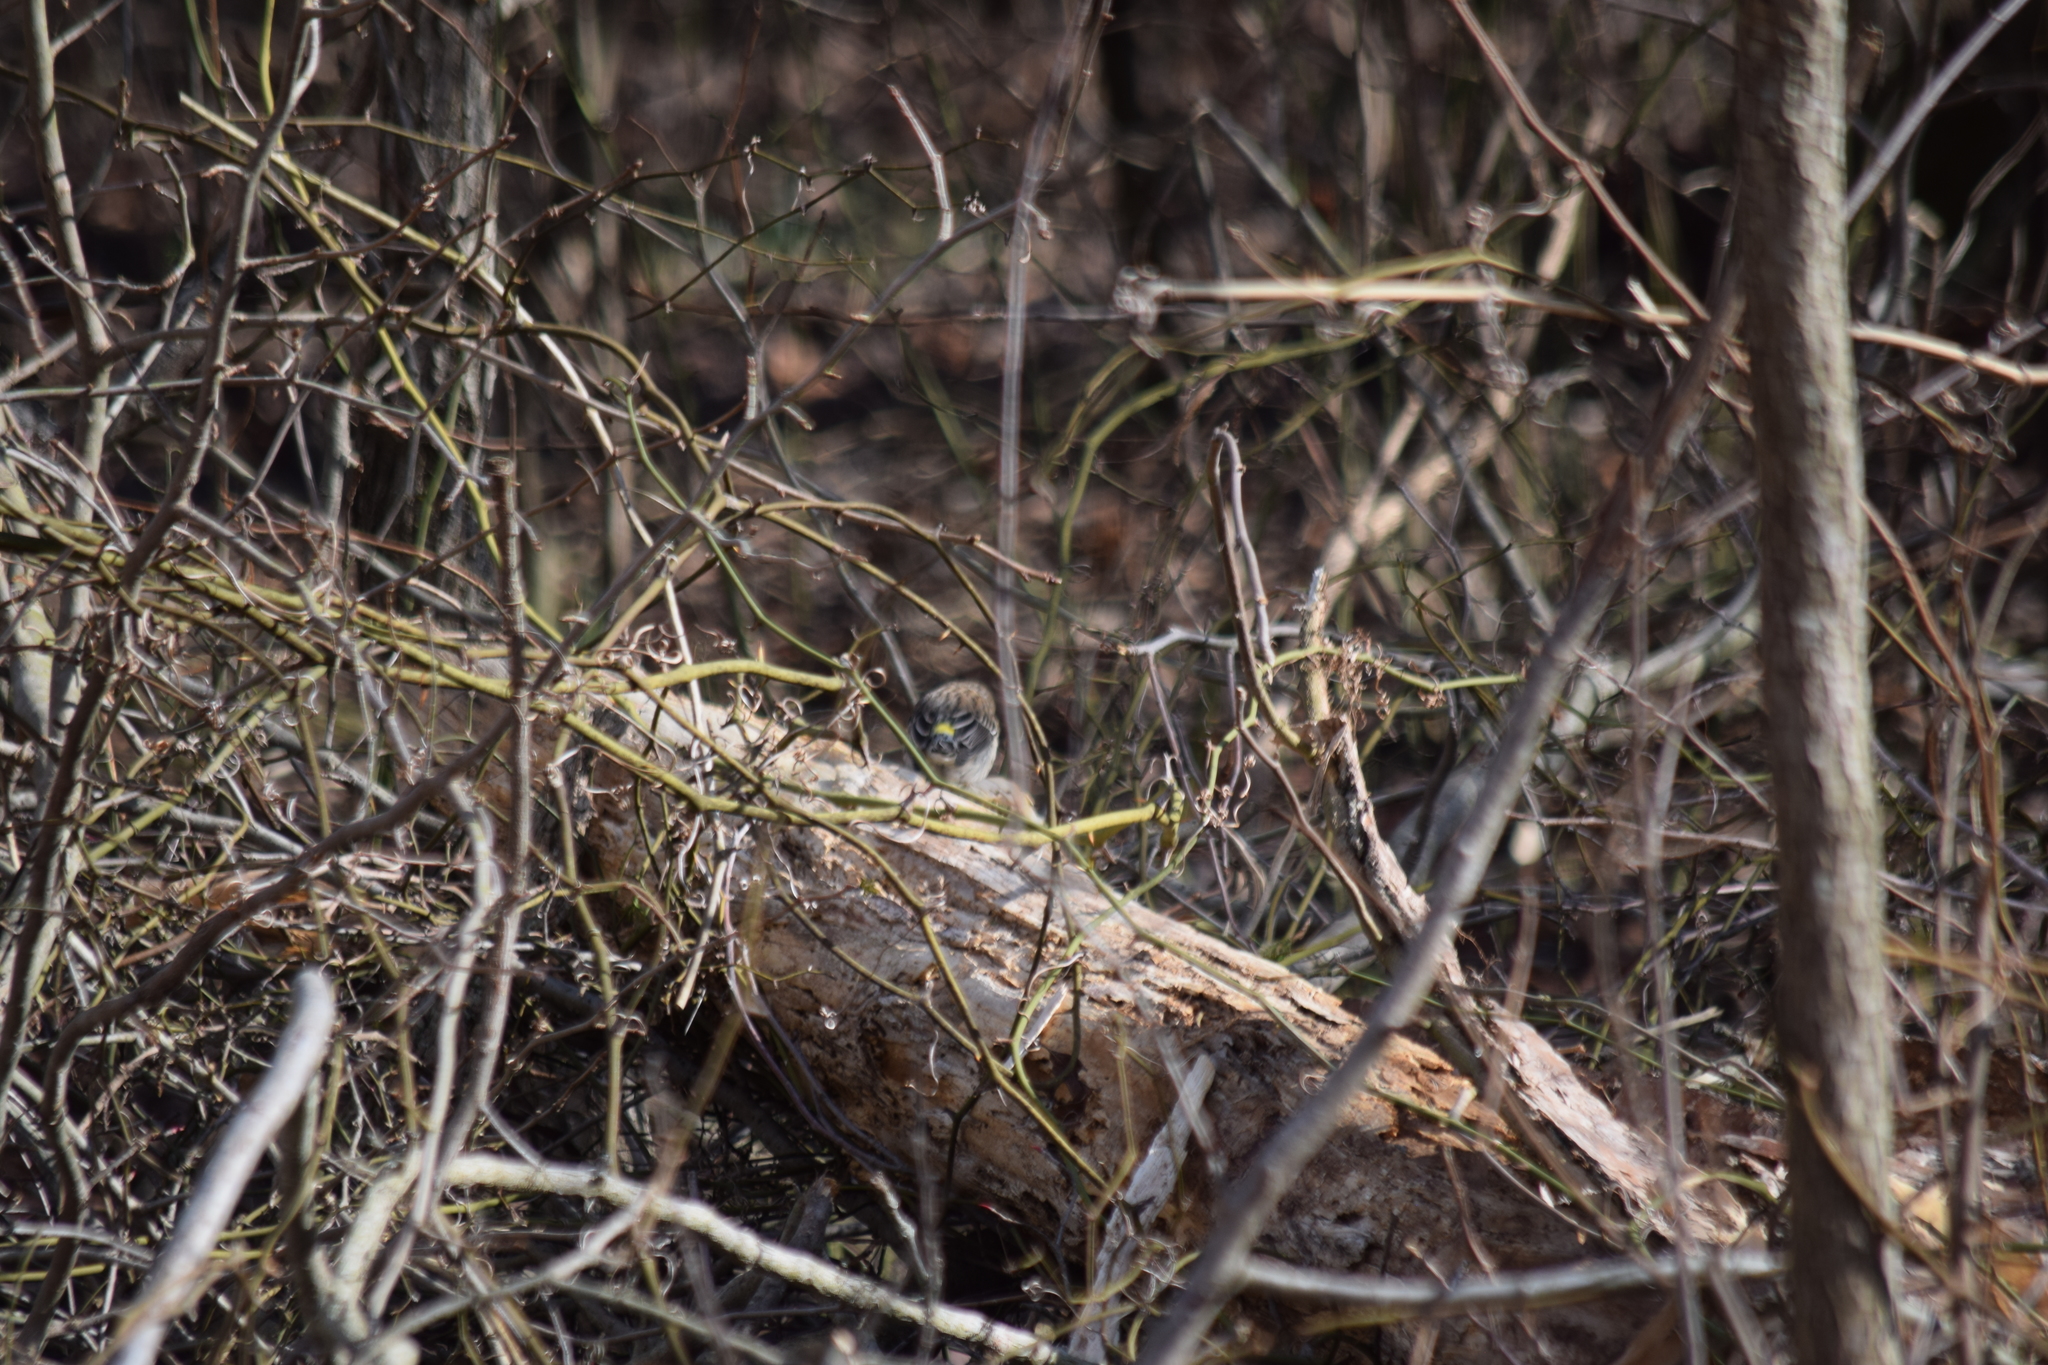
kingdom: Animalia
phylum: Chordata
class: Aves
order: Passeriformes
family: Parulidae
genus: Setophaga
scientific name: Setophaga coronata
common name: Myrtle warbler
